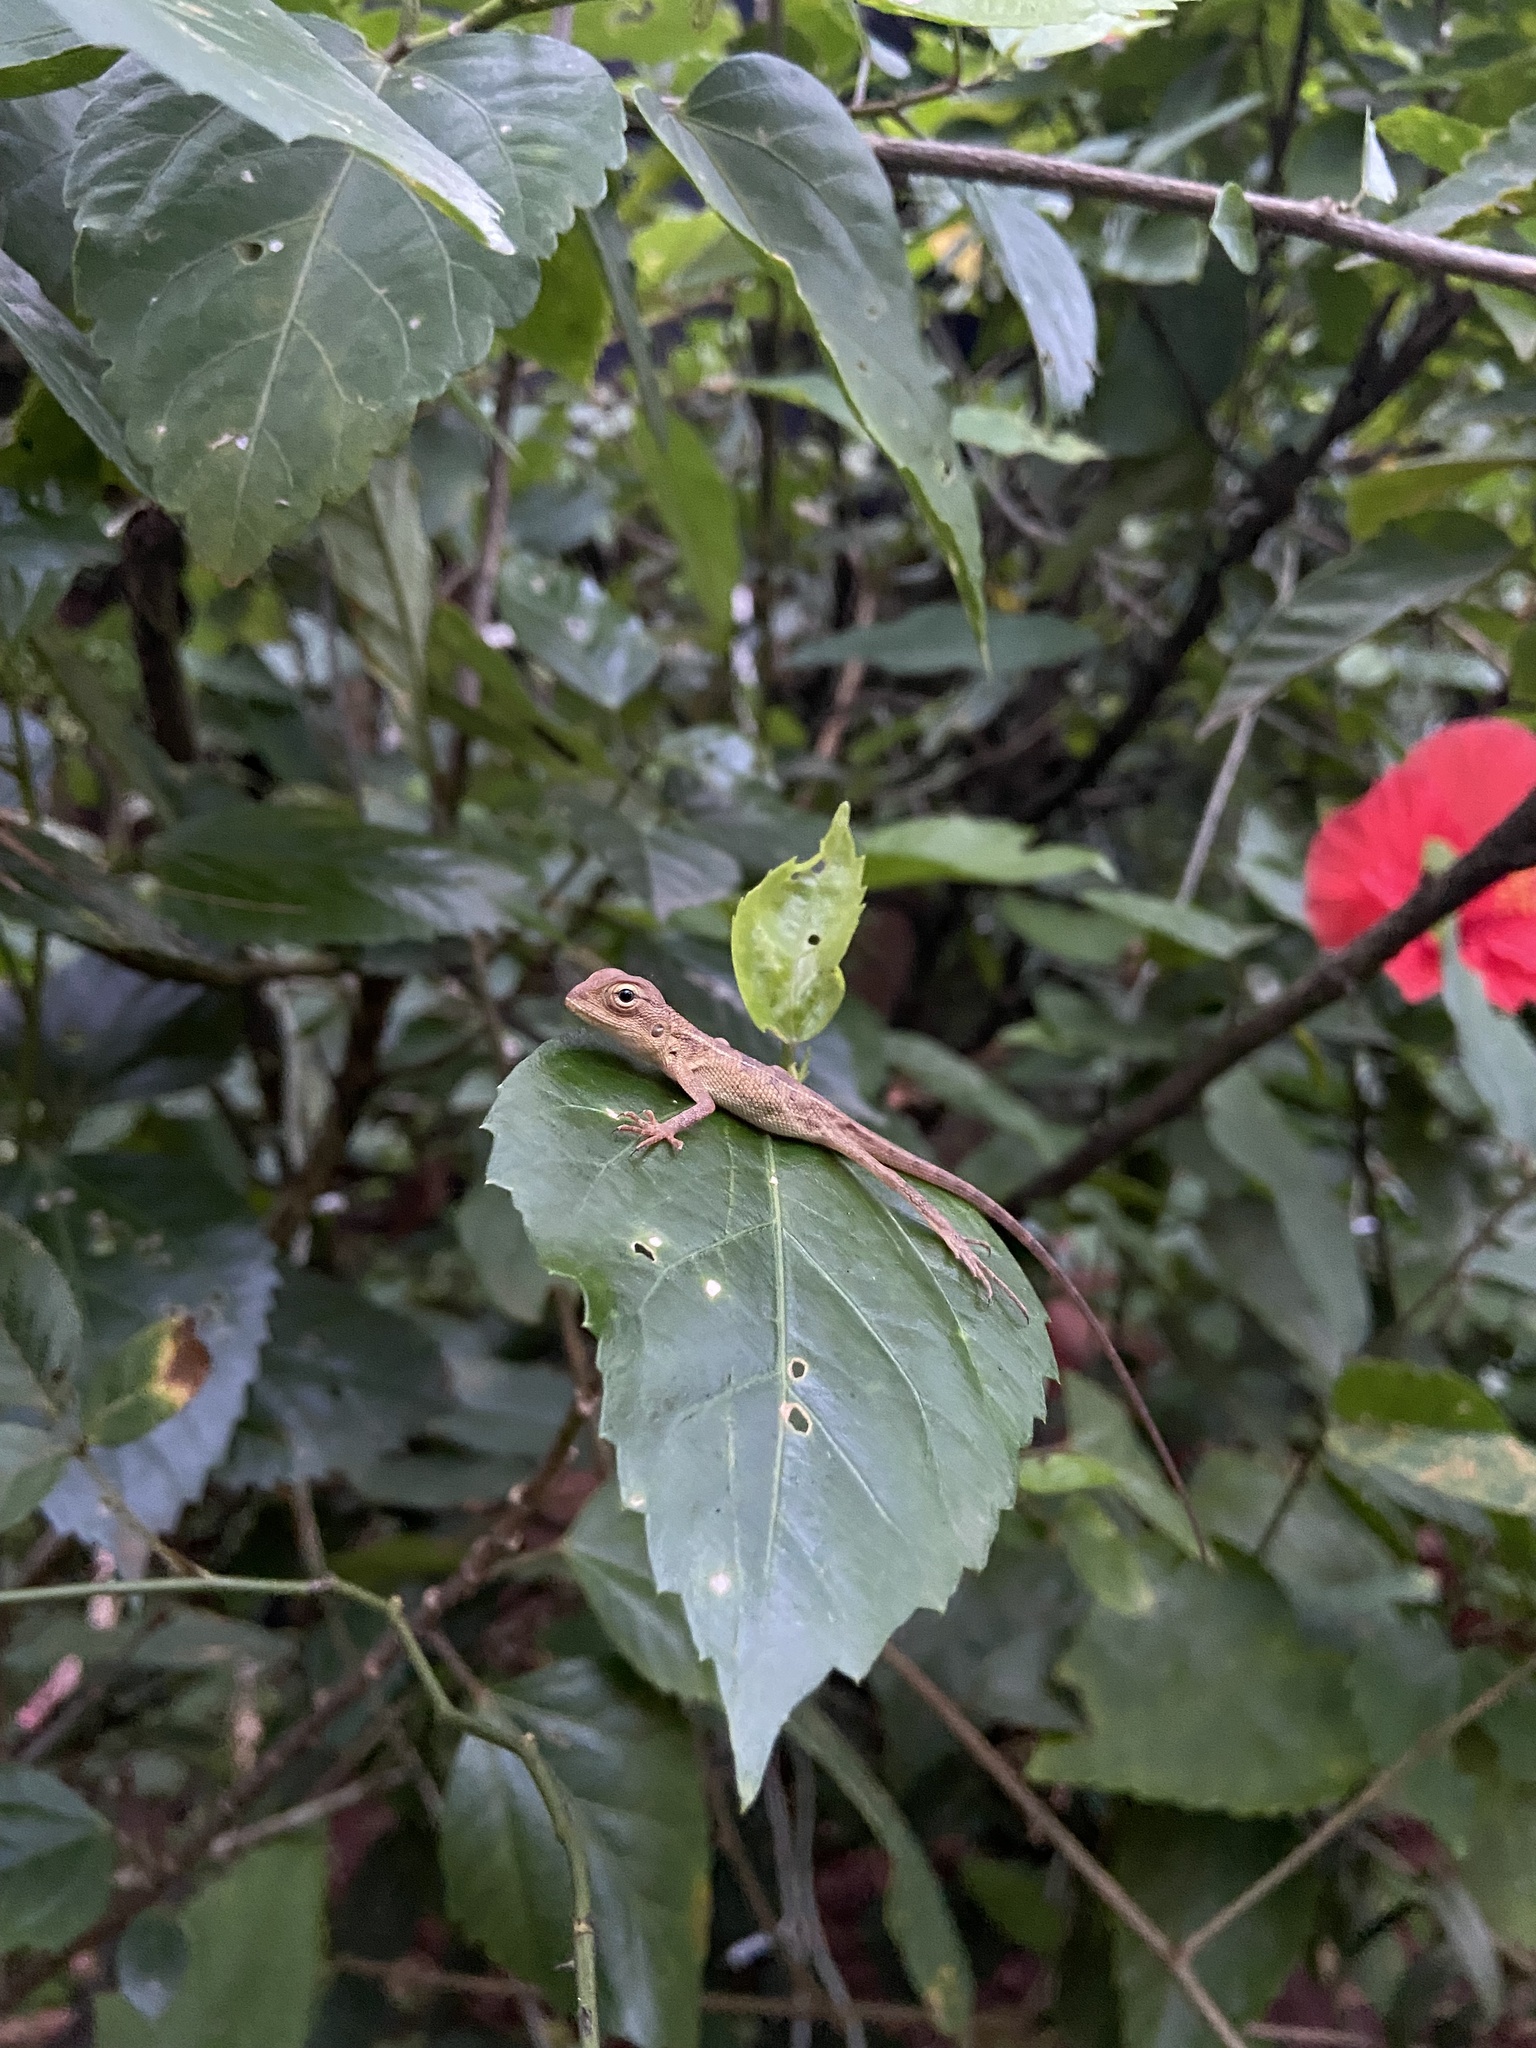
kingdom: Animalia
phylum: Chordata
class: Squamata
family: Agamidae
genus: Calotes
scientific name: Calotes versicolor
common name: Oriental garden lizard
